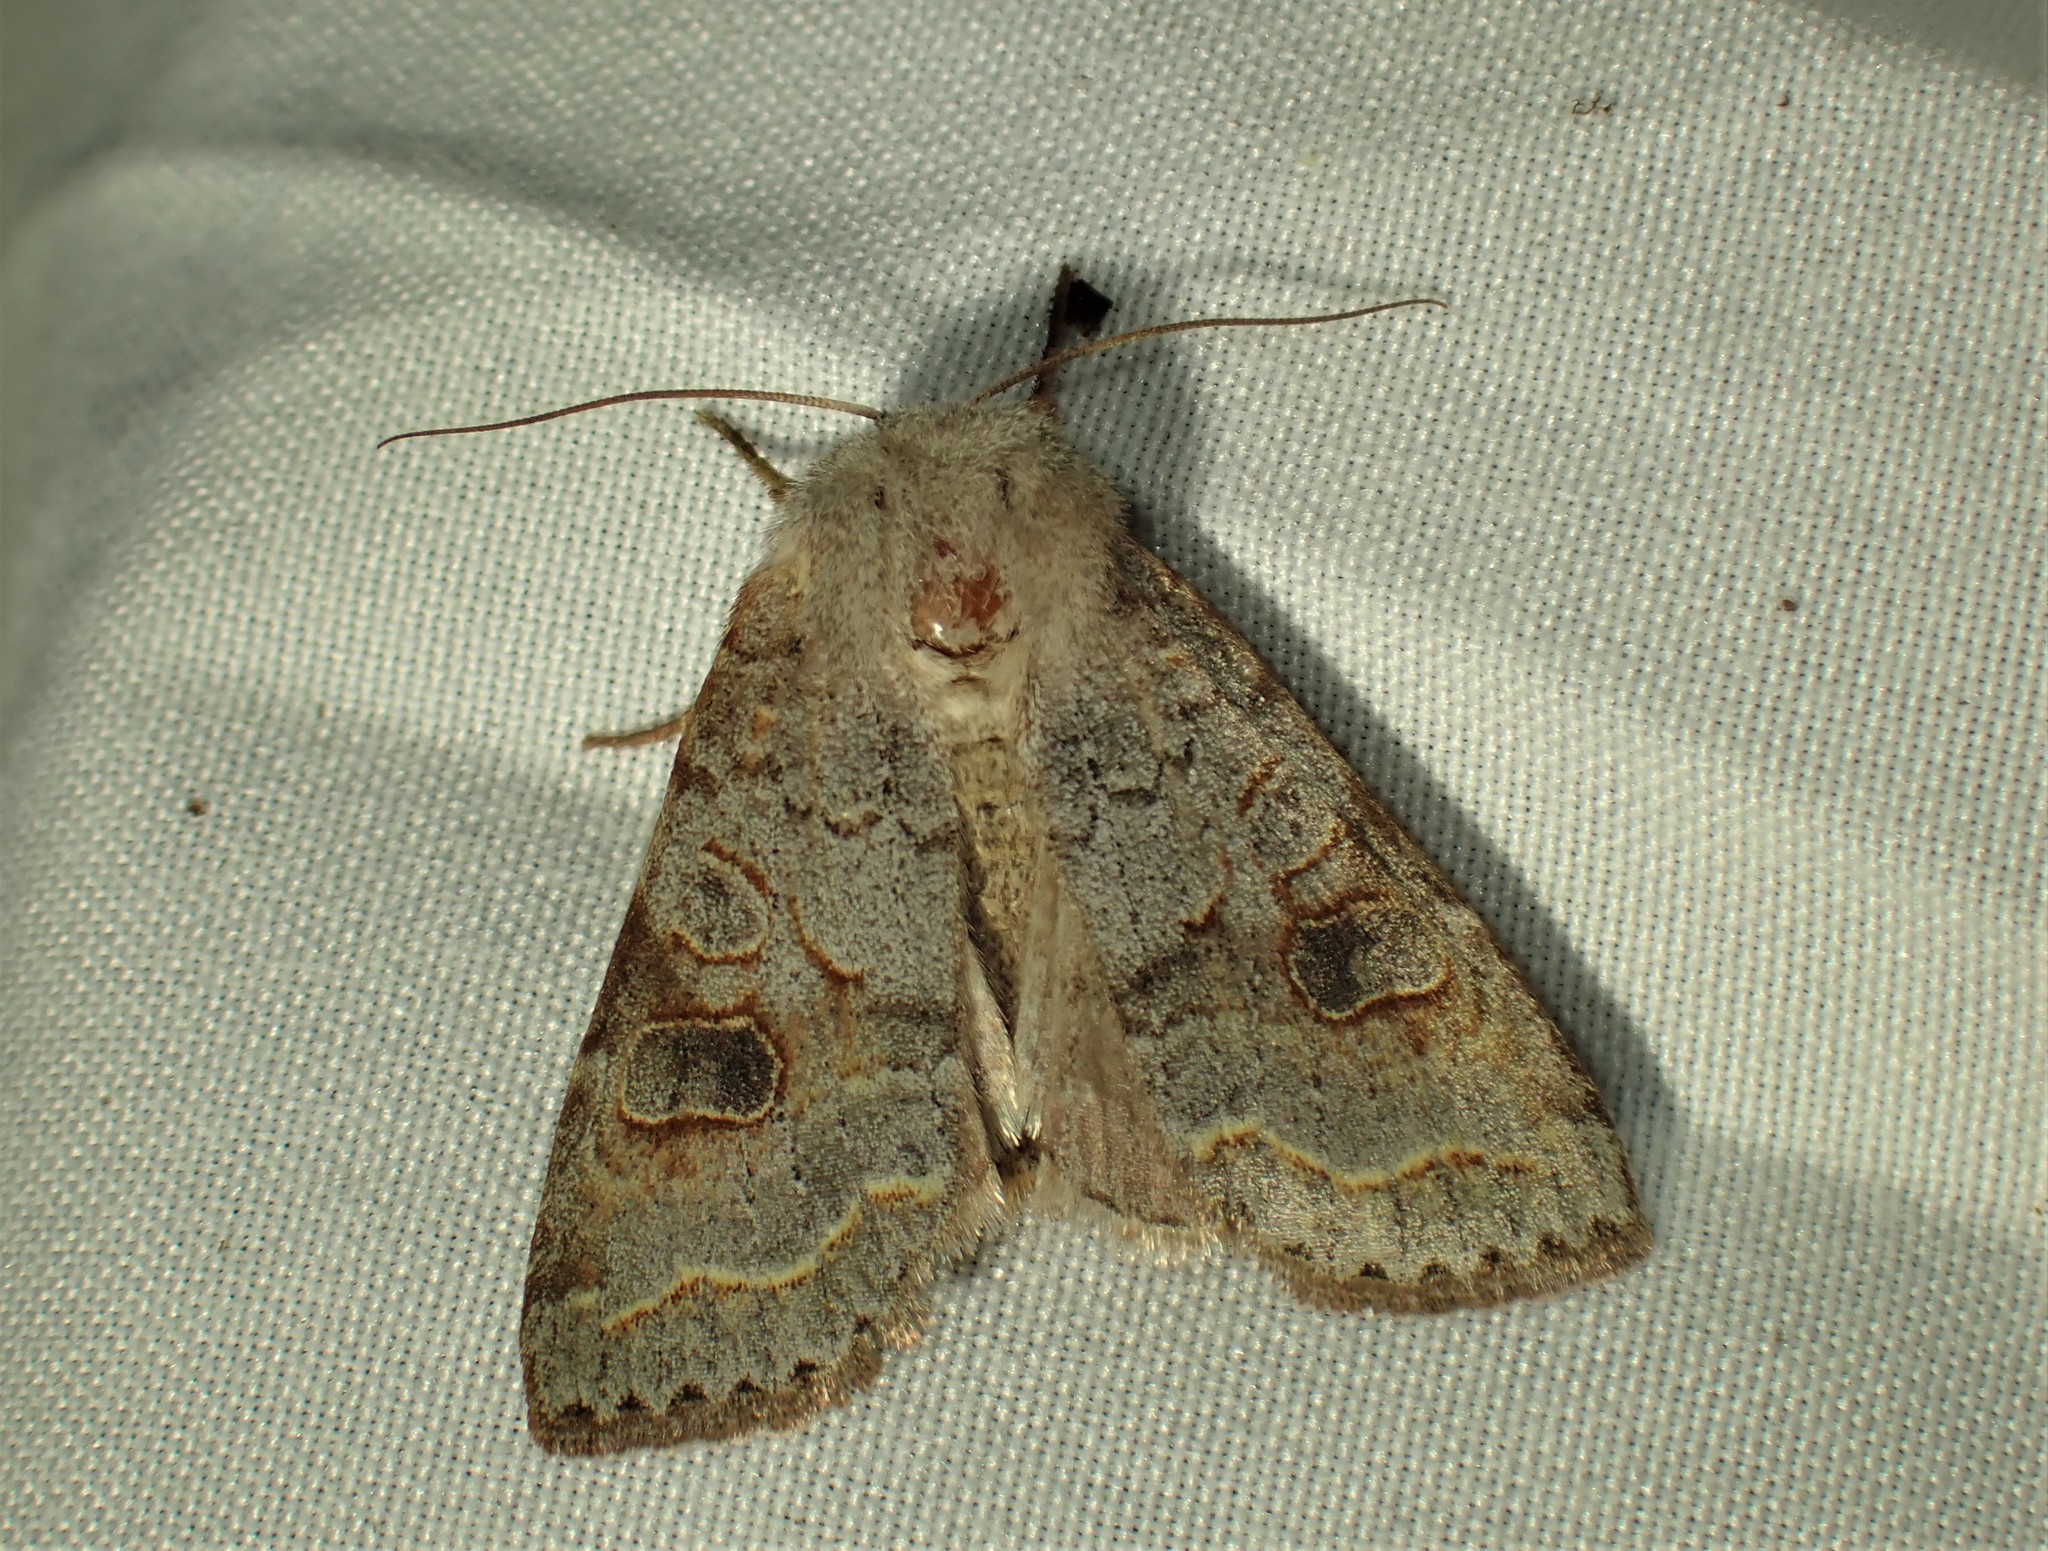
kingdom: Animalia
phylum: Arthropoda
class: Insecta
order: Lepidoptera
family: Noctuidae
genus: Orthosia
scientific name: Orthosia revicta
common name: Rusty whitesided caterpillar
